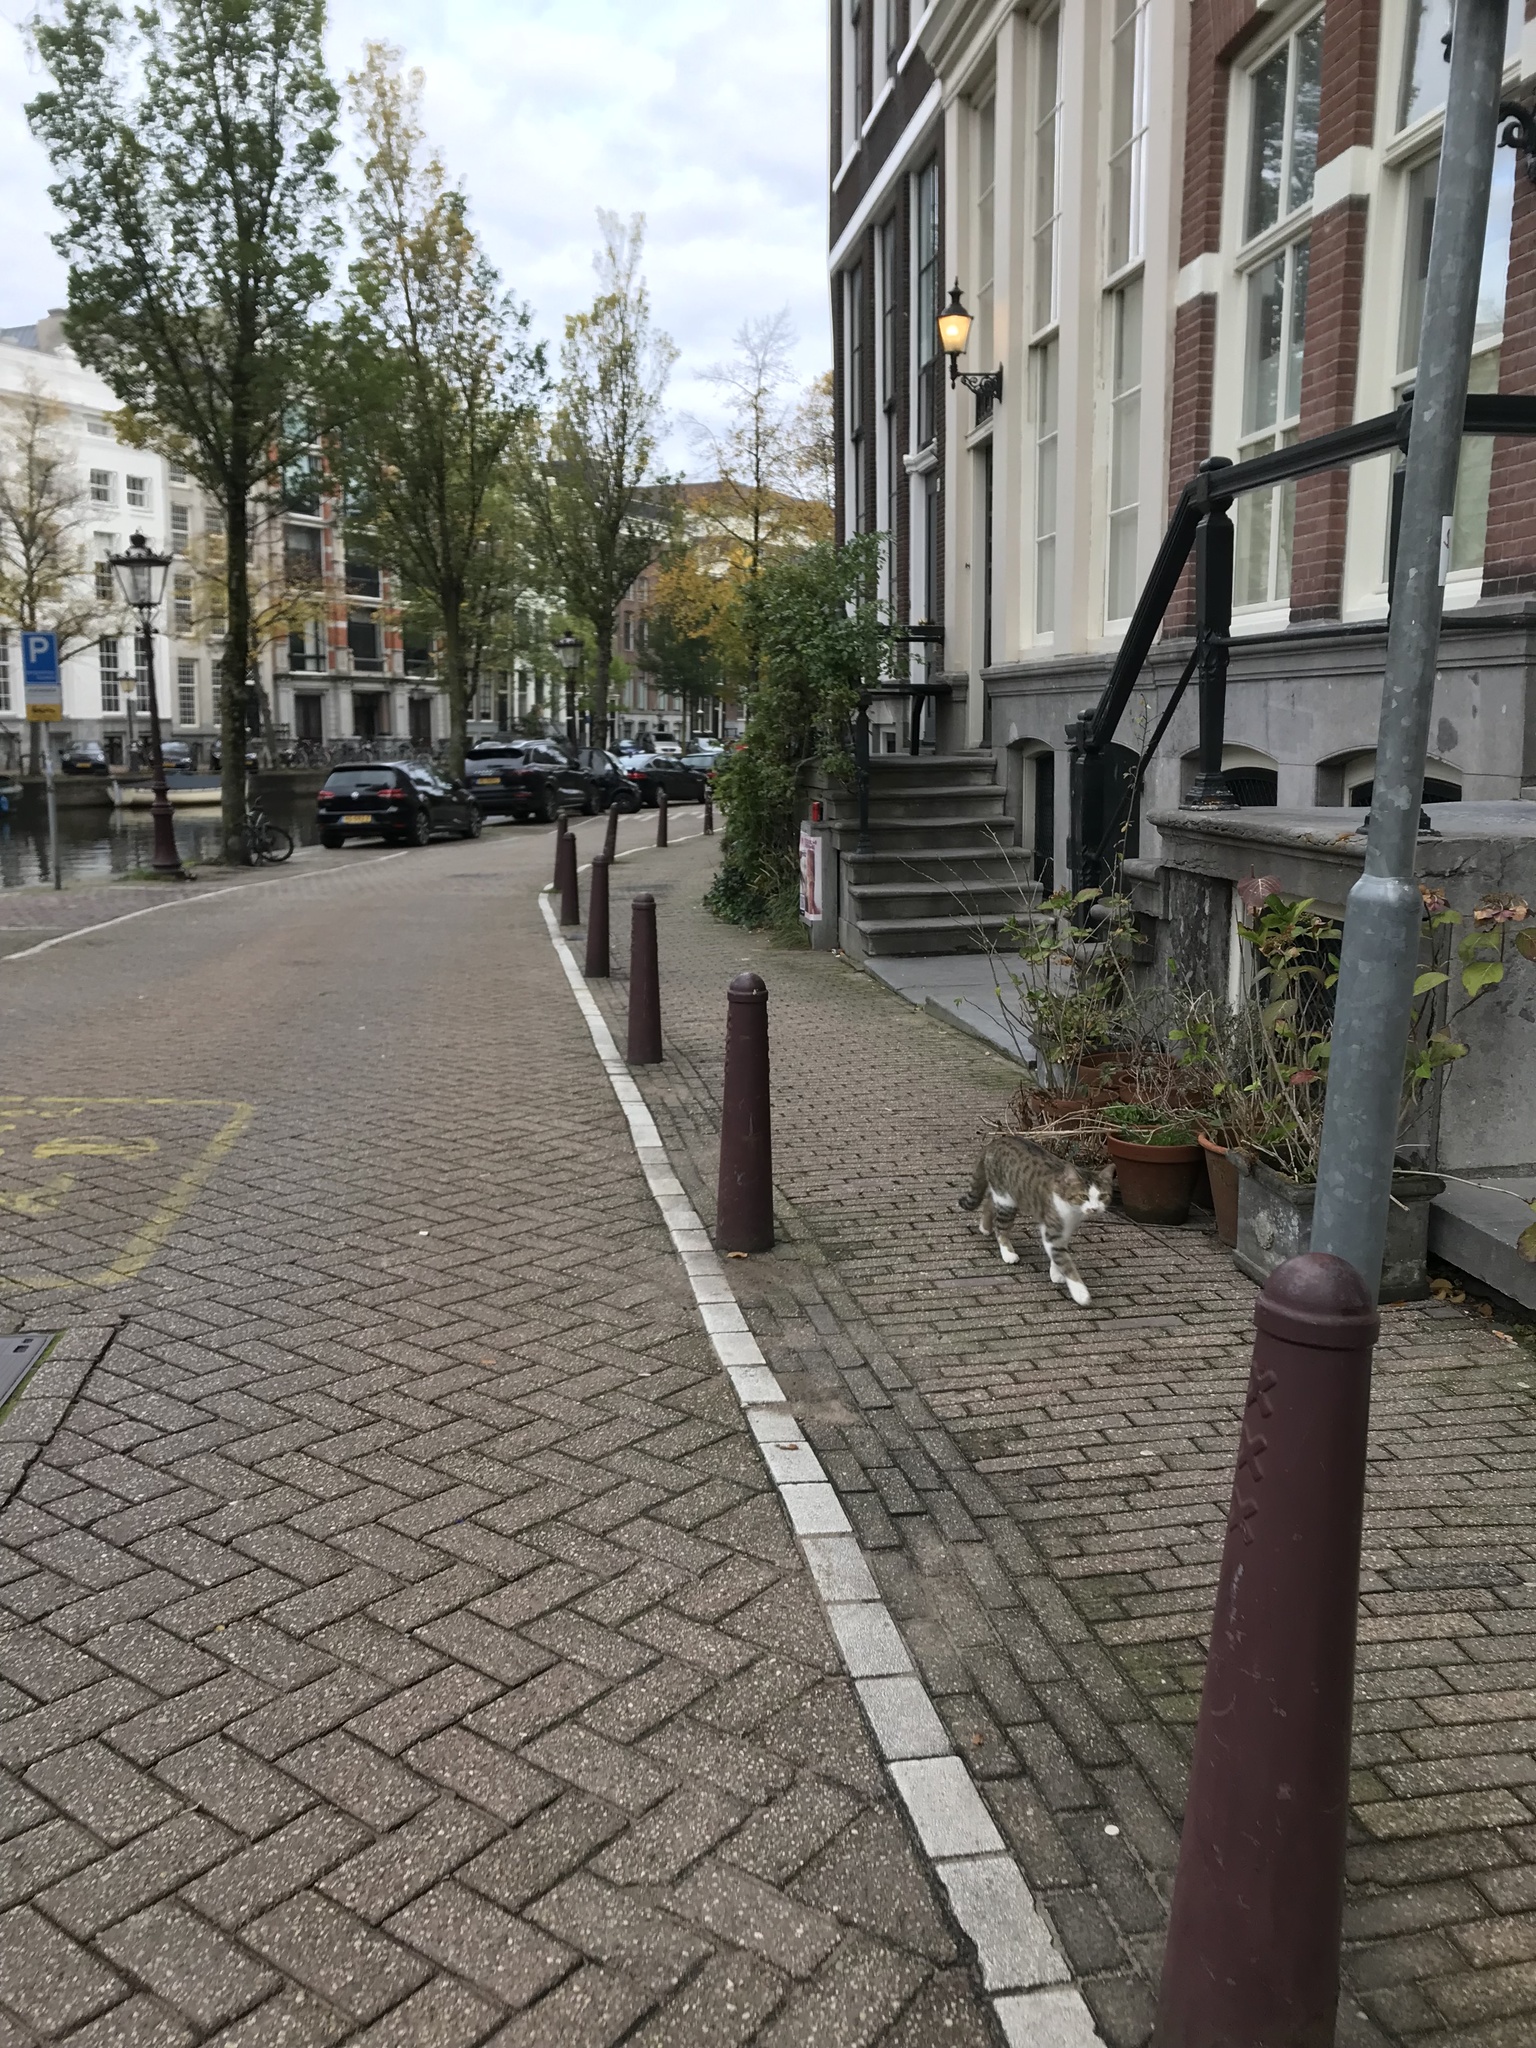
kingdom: Animalia
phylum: Chordata
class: Mammalia
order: Carnivora
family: Felidae
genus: Felis
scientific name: Felis catus
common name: Domestic cat
